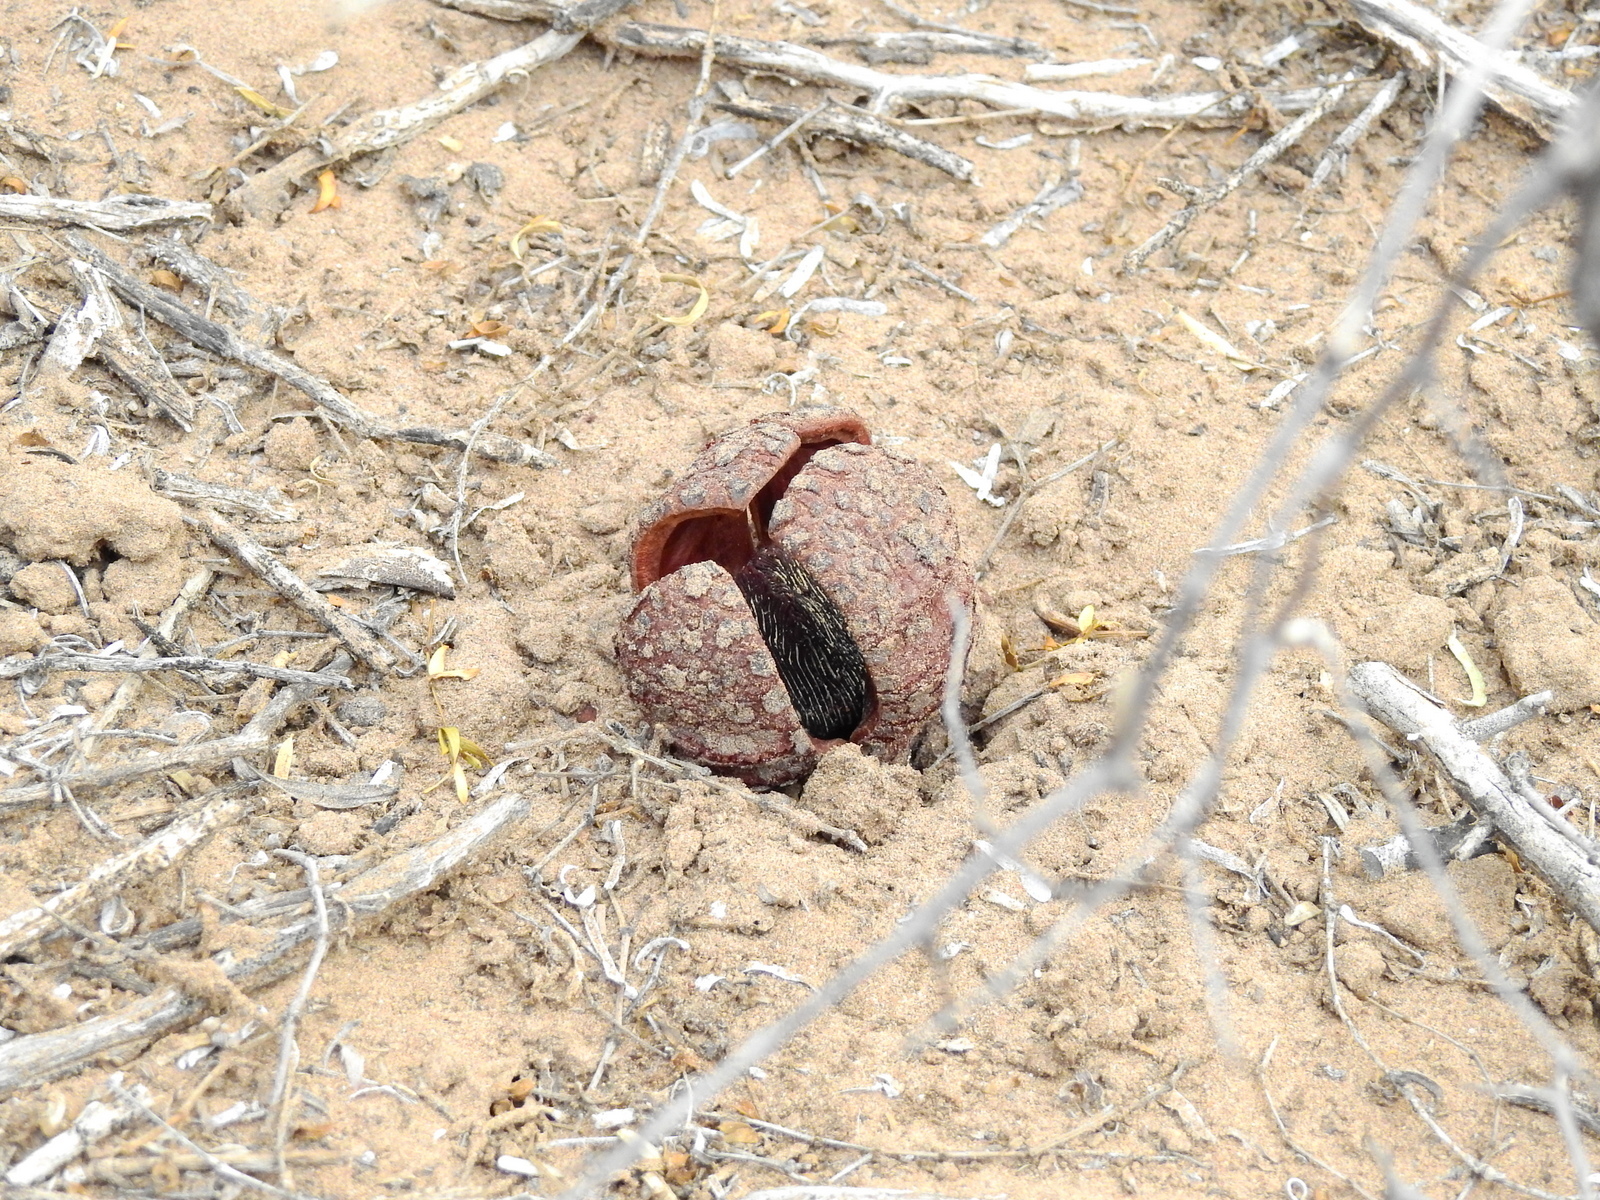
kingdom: Plantae
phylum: Tracheophyta
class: Magnoliopsida
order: Piperales
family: Hydnoraceae
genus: Prosopanche
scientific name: Prosopanche americana
